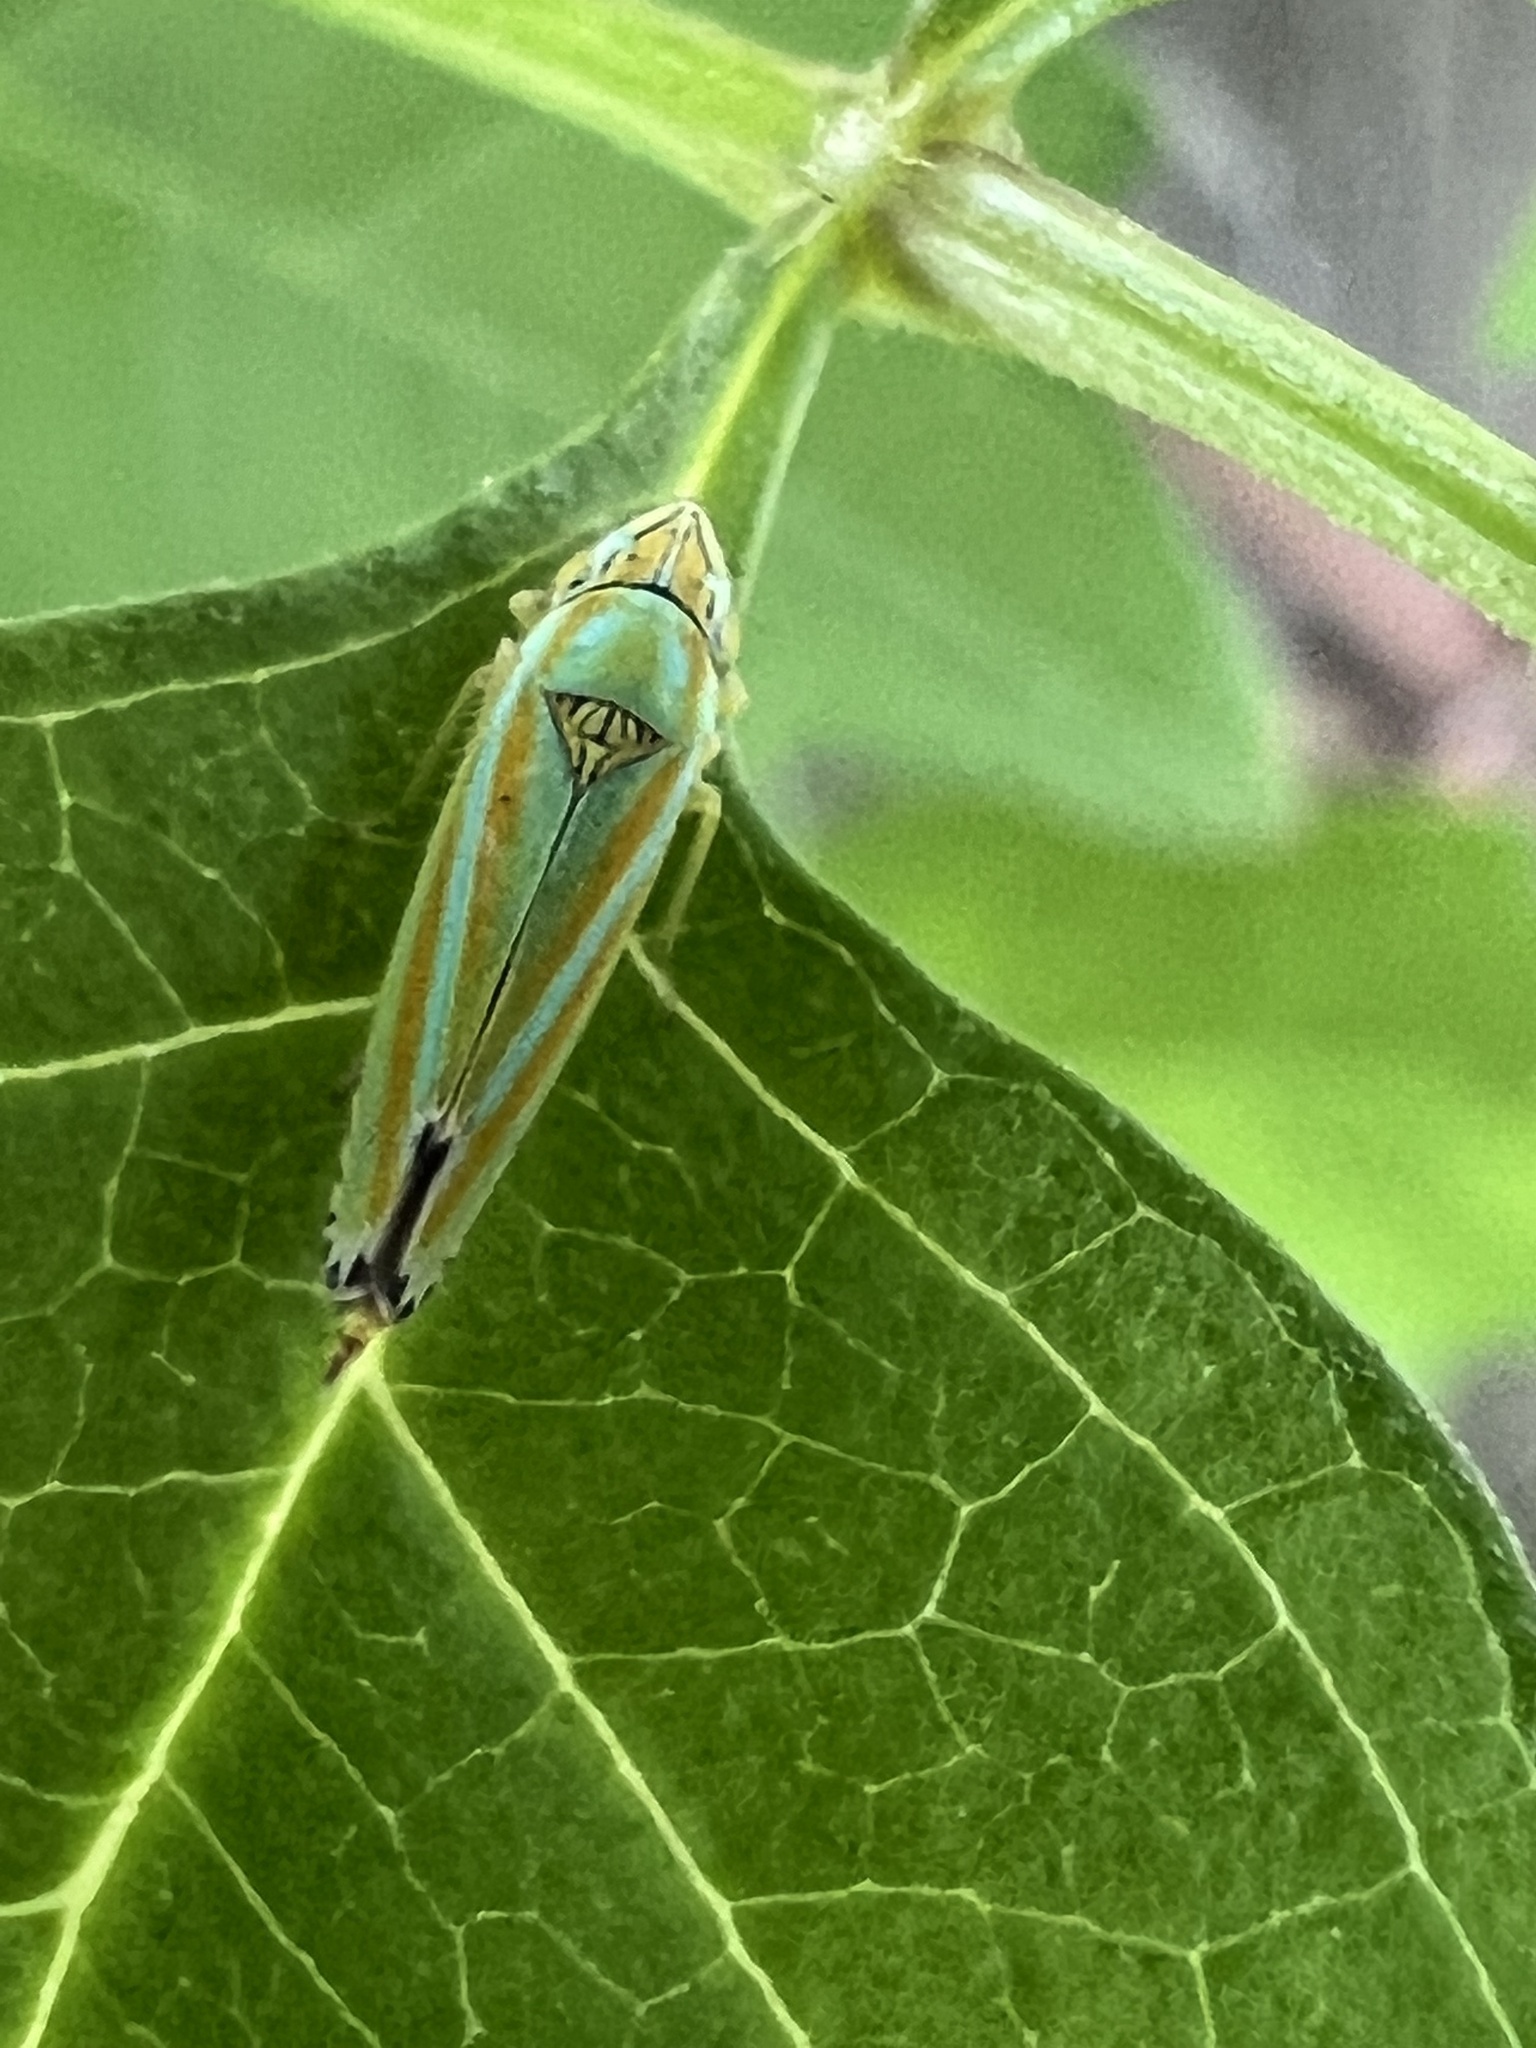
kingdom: Animalia
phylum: Arthropoda
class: Insecta
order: Hemiptera
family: Cicadellidae
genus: Graphocephala
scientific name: Graphocephala versuta
